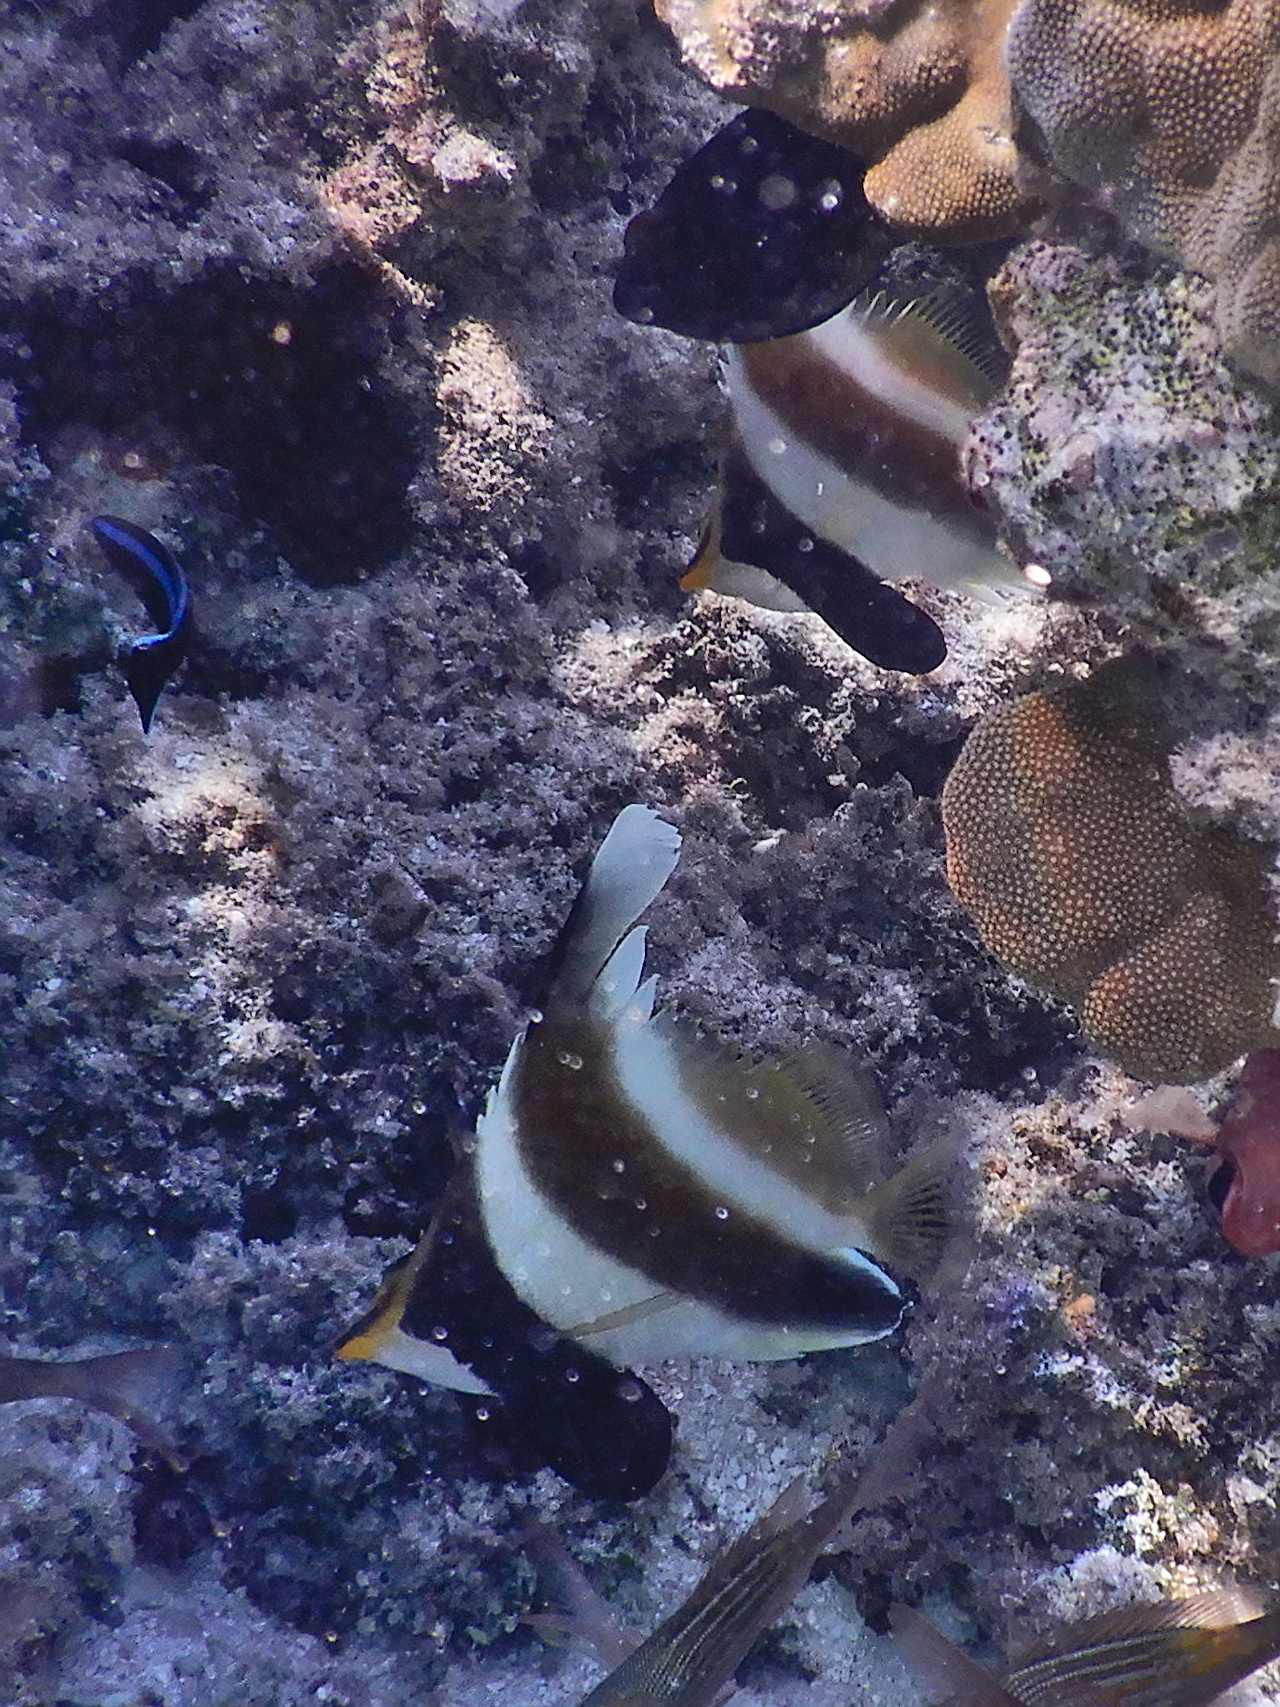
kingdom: Animalia
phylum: Chordata
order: Perciformes
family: Chaetodontidae
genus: Heniochus
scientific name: Heniochus chrysostomus
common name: Horned bannerfish
